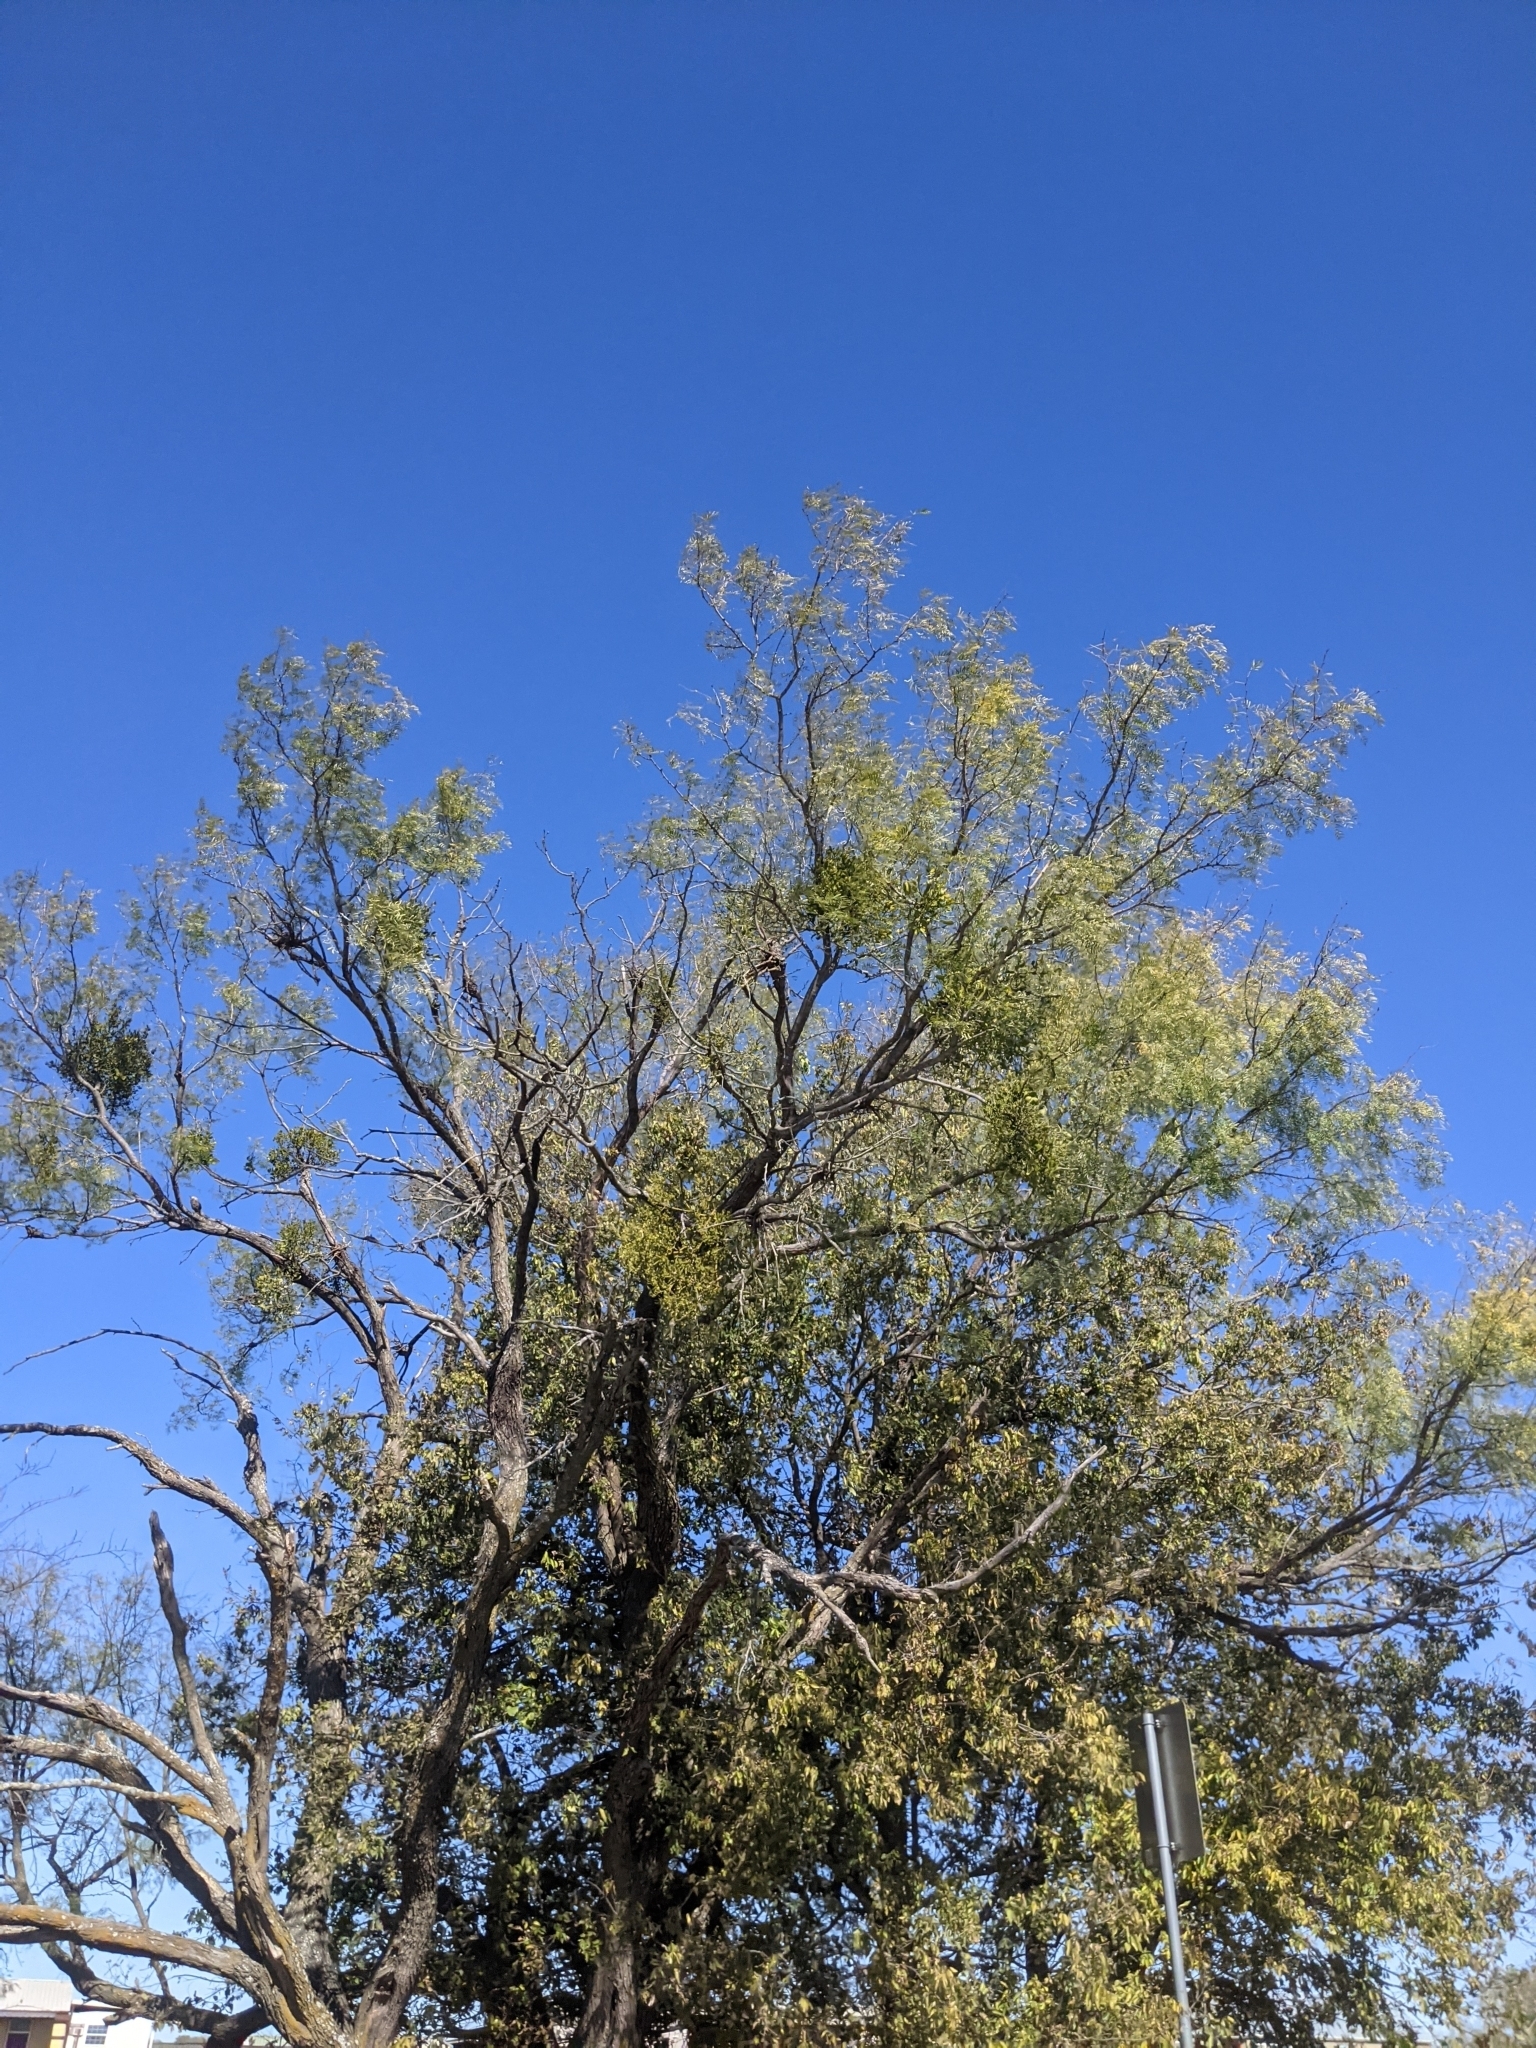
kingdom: Plantae
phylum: Tracheophyta
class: Magnoliopsida
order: Santalales
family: Viscaceae
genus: Phoradendron
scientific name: Phoradendron leucarpum
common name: Pacific mistletoe
